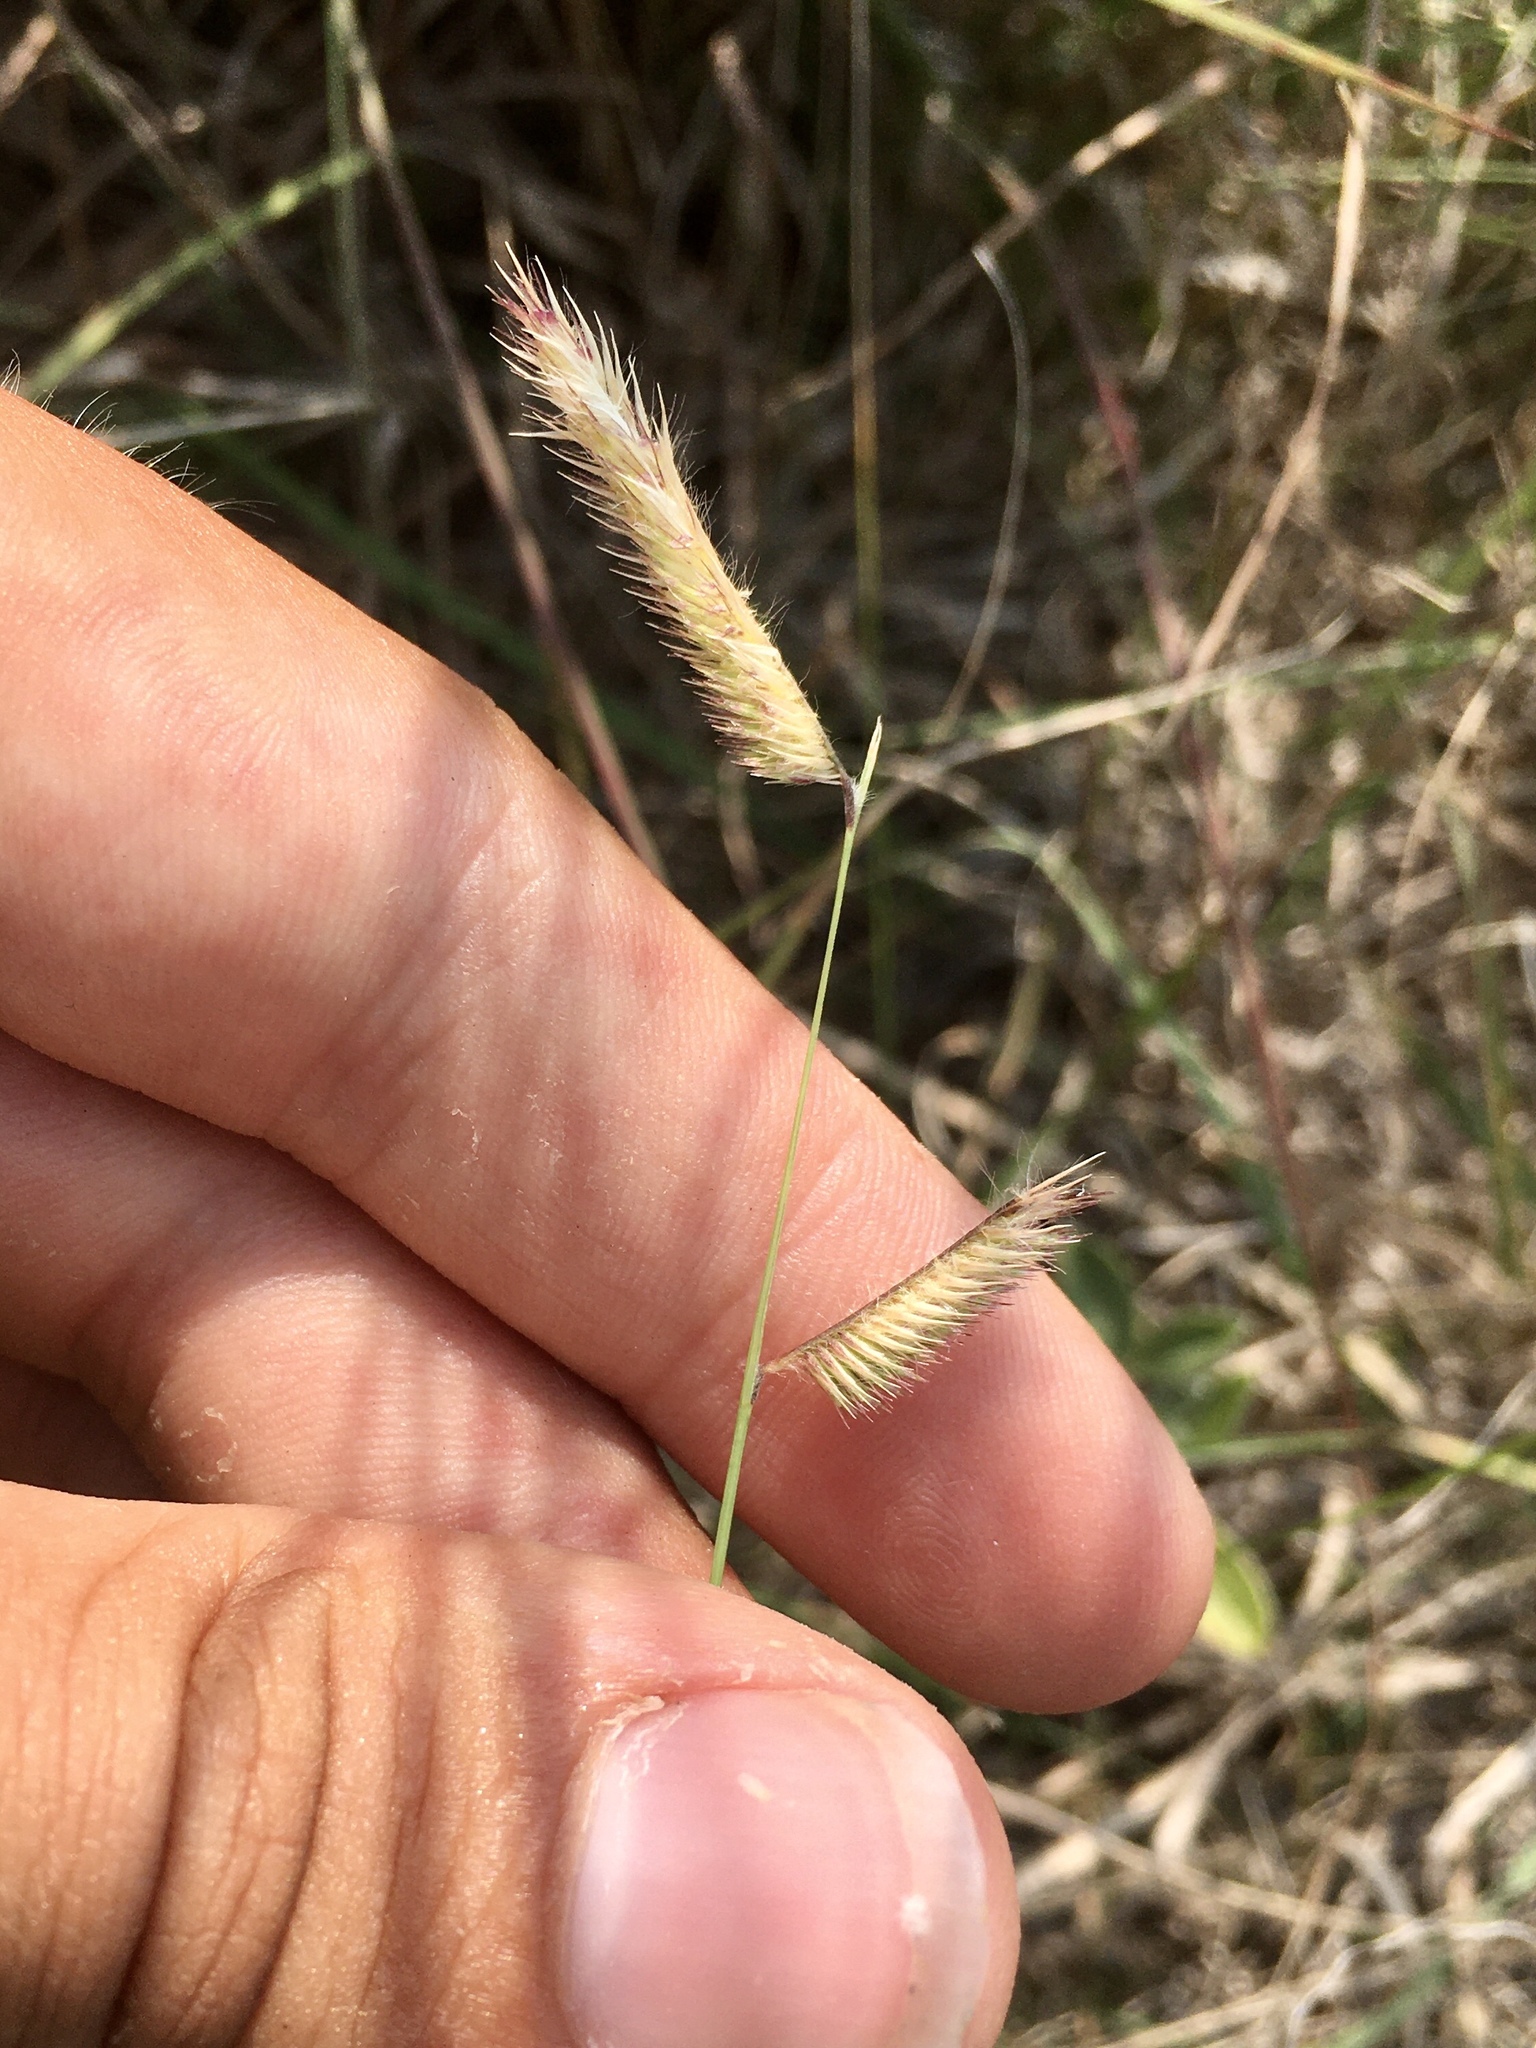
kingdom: Plantae
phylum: Tracheophyta
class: Liliopsida
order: Poales
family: Poaceae
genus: Bouteloua
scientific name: Bouteloua gracilis
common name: Blue grama
